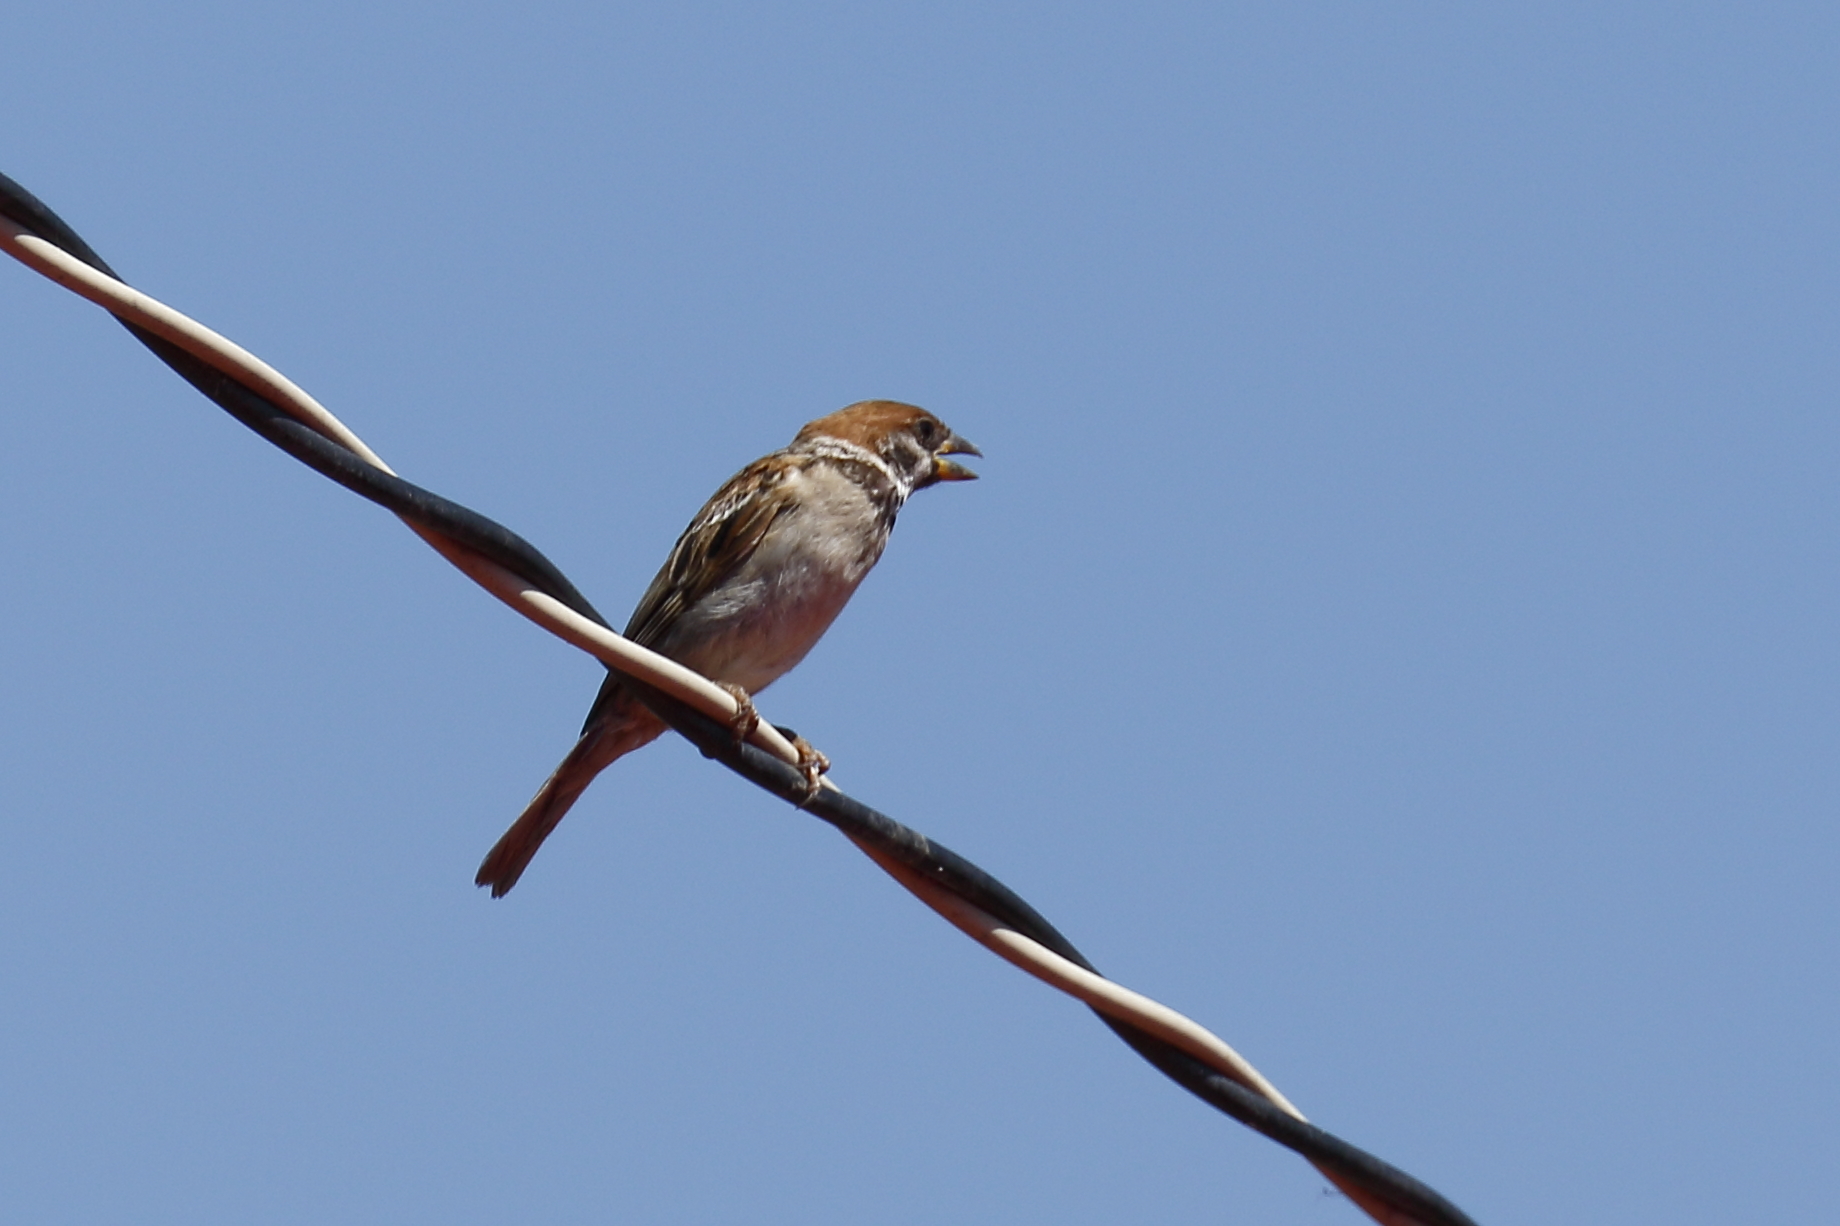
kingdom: Animalia
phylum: Chordata
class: Aves
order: Passeriformes
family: Passeridae
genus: Passer
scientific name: Passer montanus
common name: Eurasian tree sparrow
